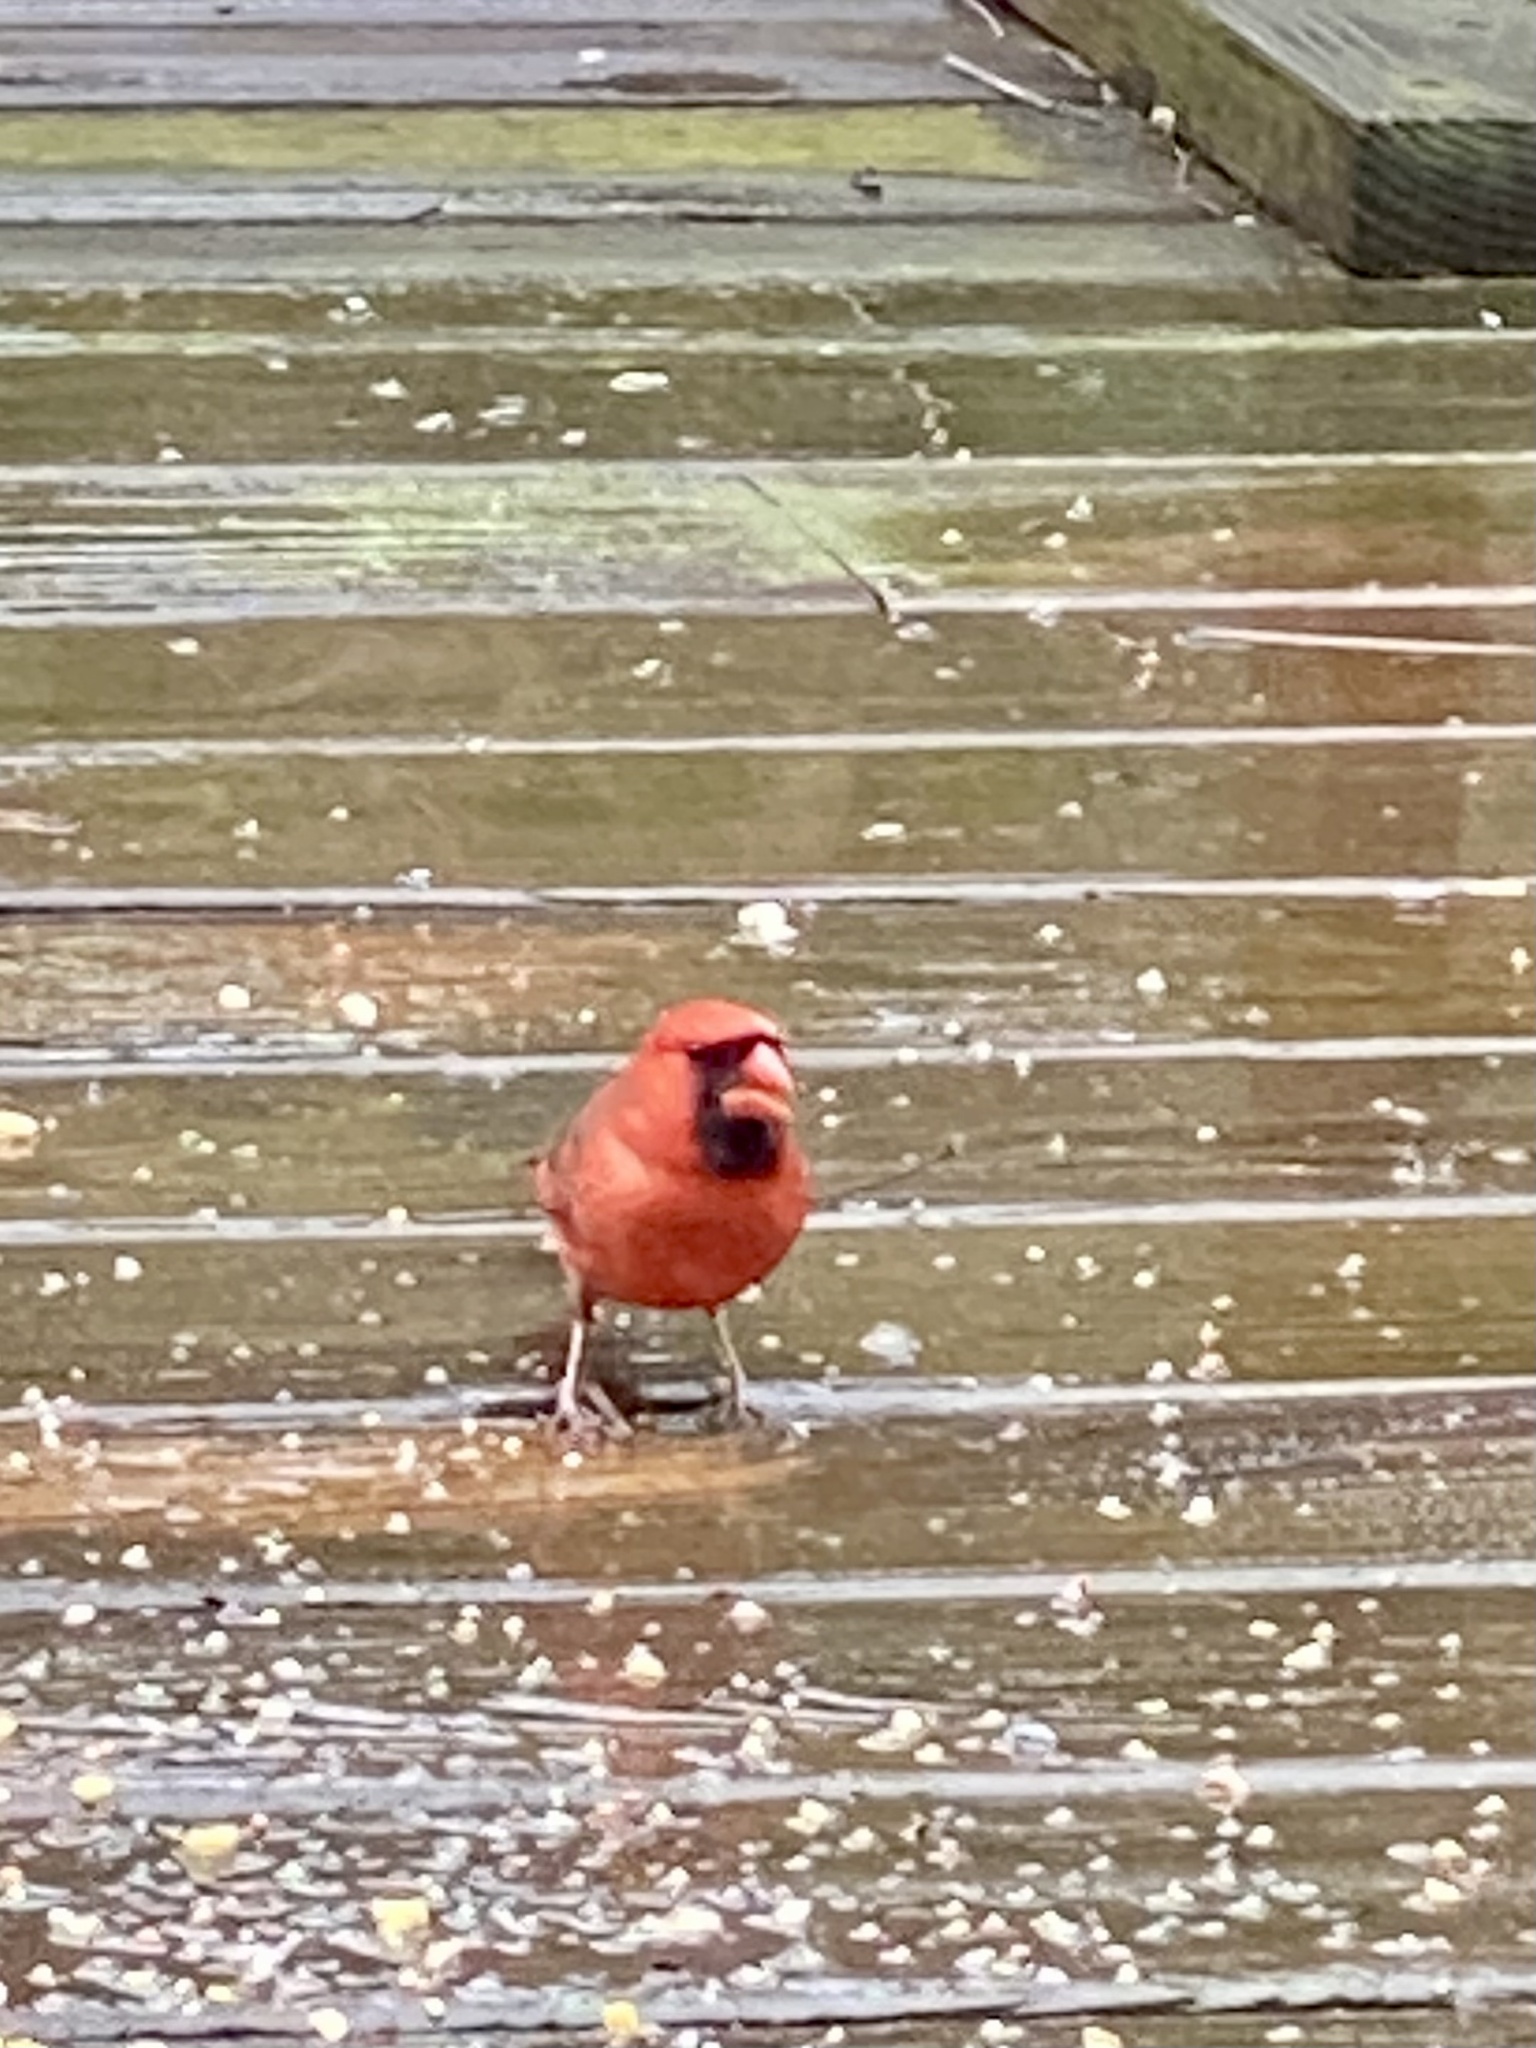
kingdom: Animalia
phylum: Chordata
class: Aves
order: Passeriformes
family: Cardinalidae
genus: Cardinalis
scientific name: Cardinalis cardinalis
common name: Northern cardinal
